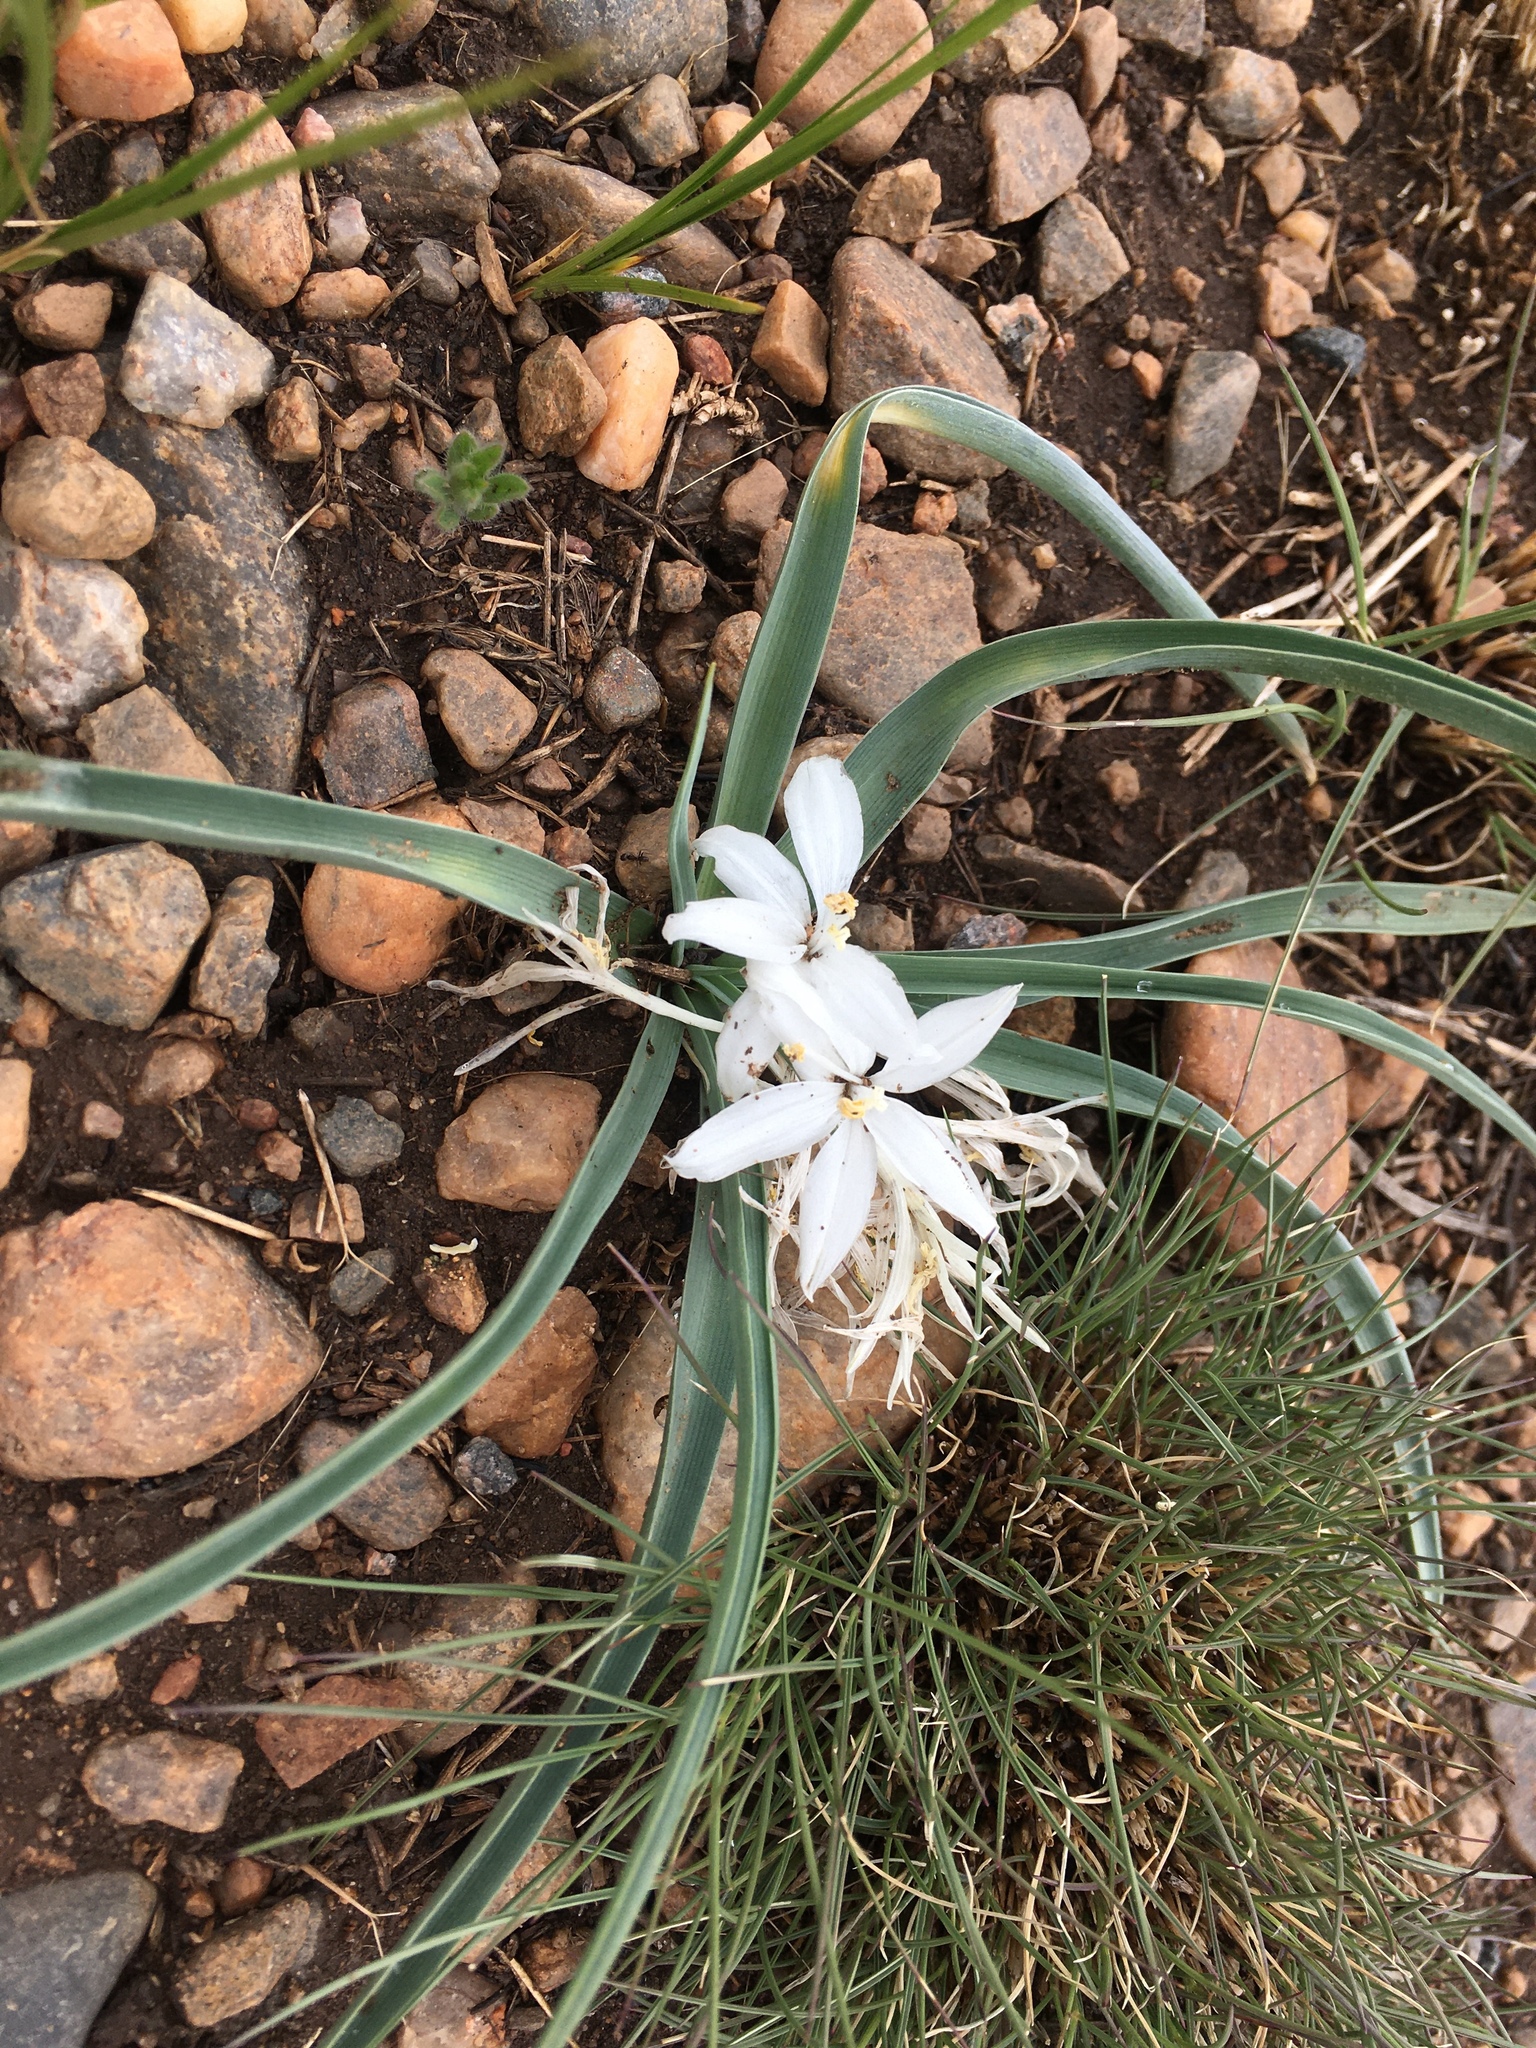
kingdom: Plantae
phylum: Tracheophyta
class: Liliopsida
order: Asparagales
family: Asparagaceae
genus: Leucocrinum
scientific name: Leucocrinum montanum
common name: Mountain-lily
